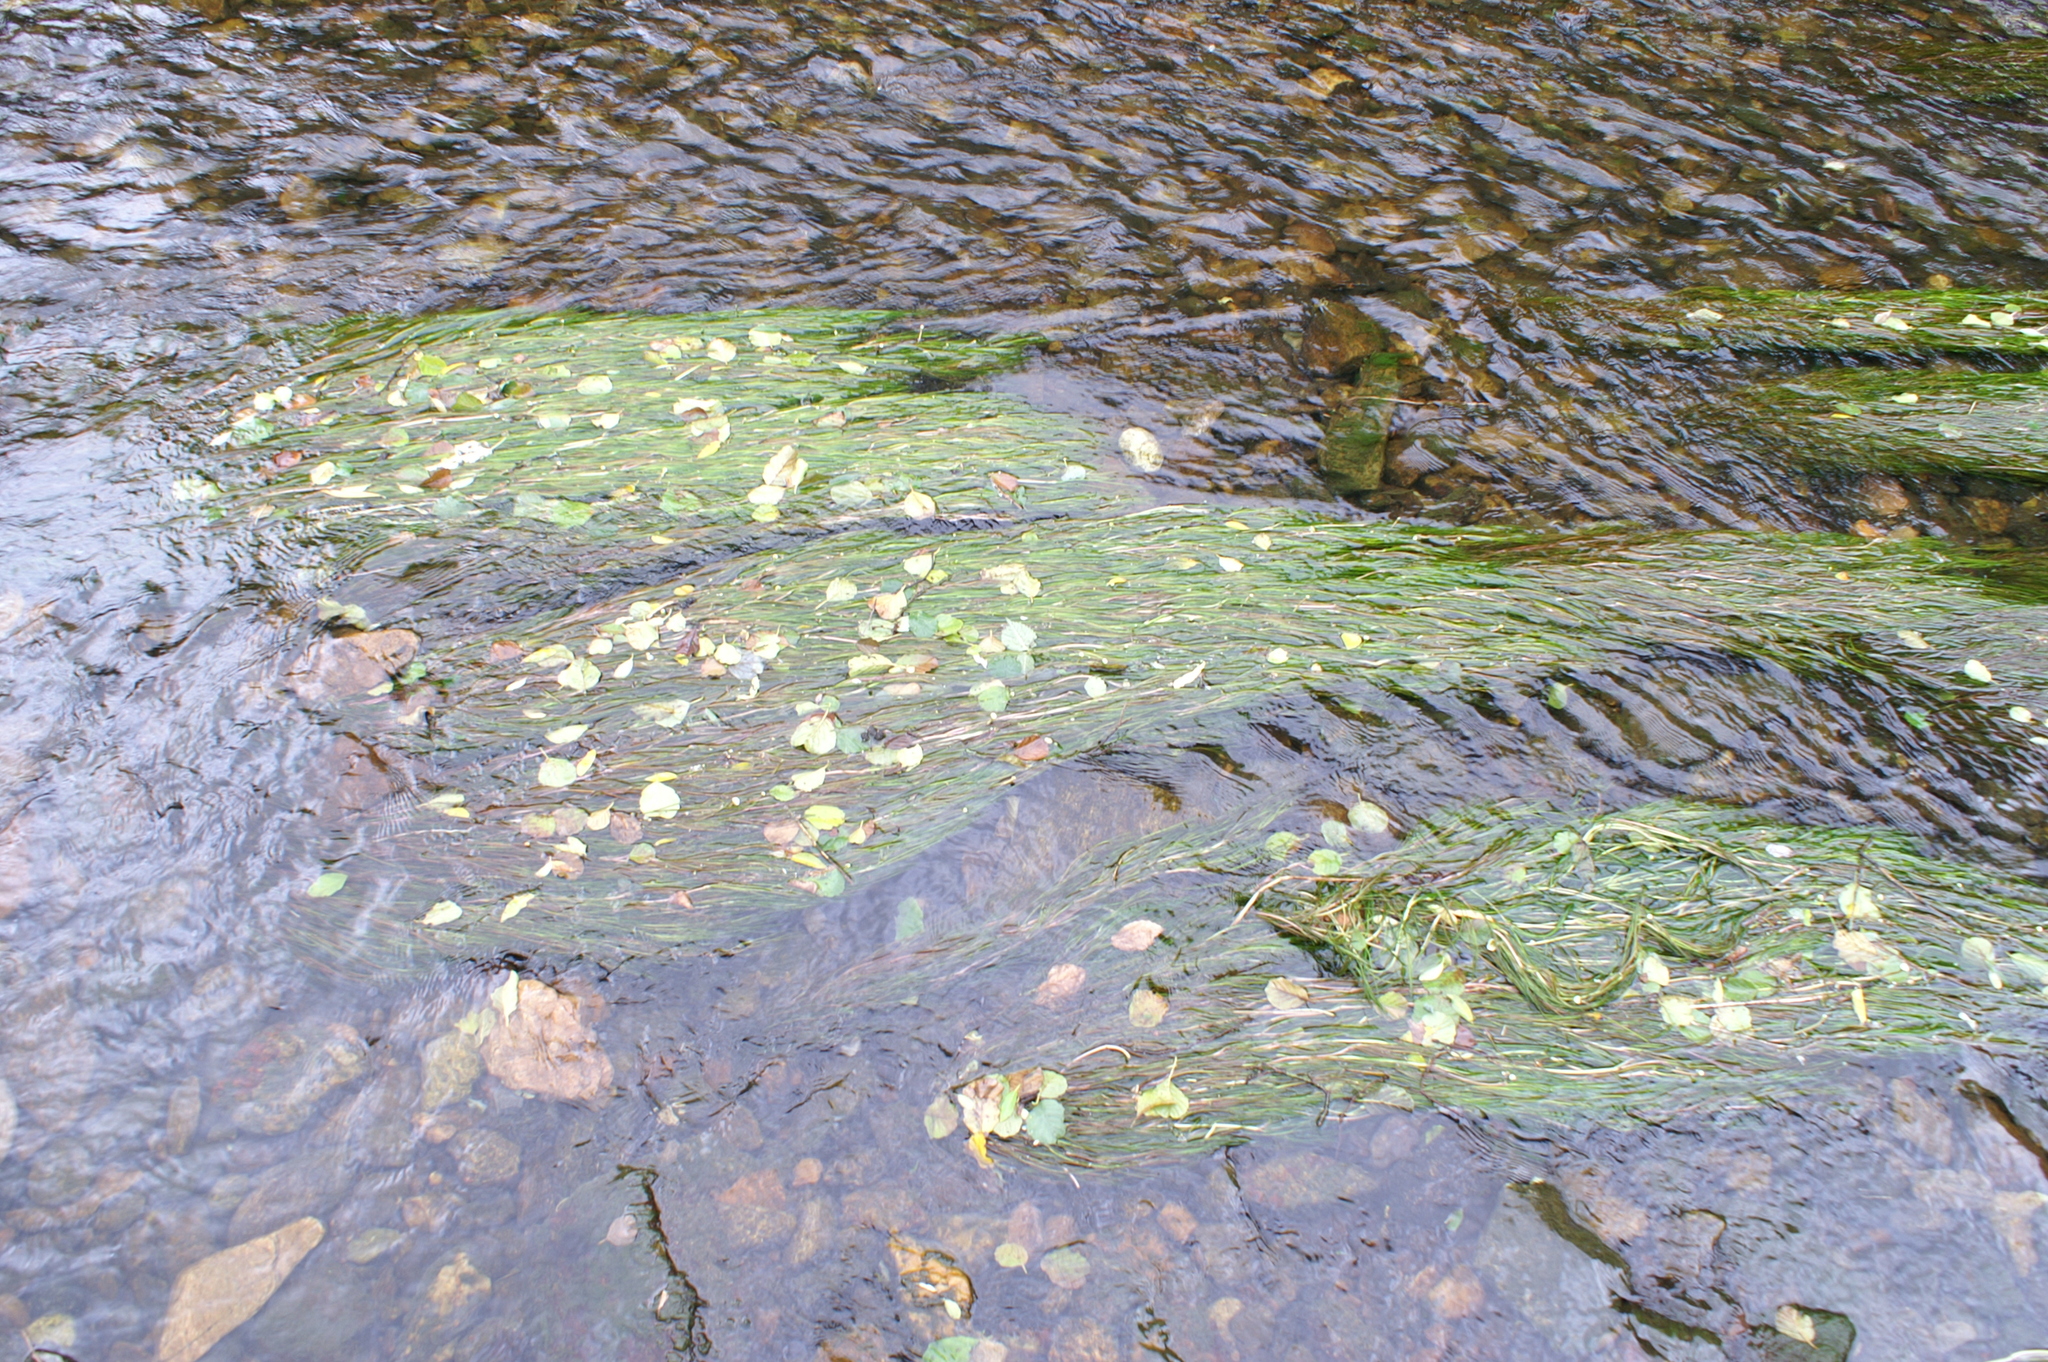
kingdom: Plantae
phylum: Tracheophyta
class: Magnoliopsida
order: Ranunculales
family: Ranunculaceae
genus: Ranunculus
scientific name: Ranunculus fluitans
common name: River water-crowfoot
